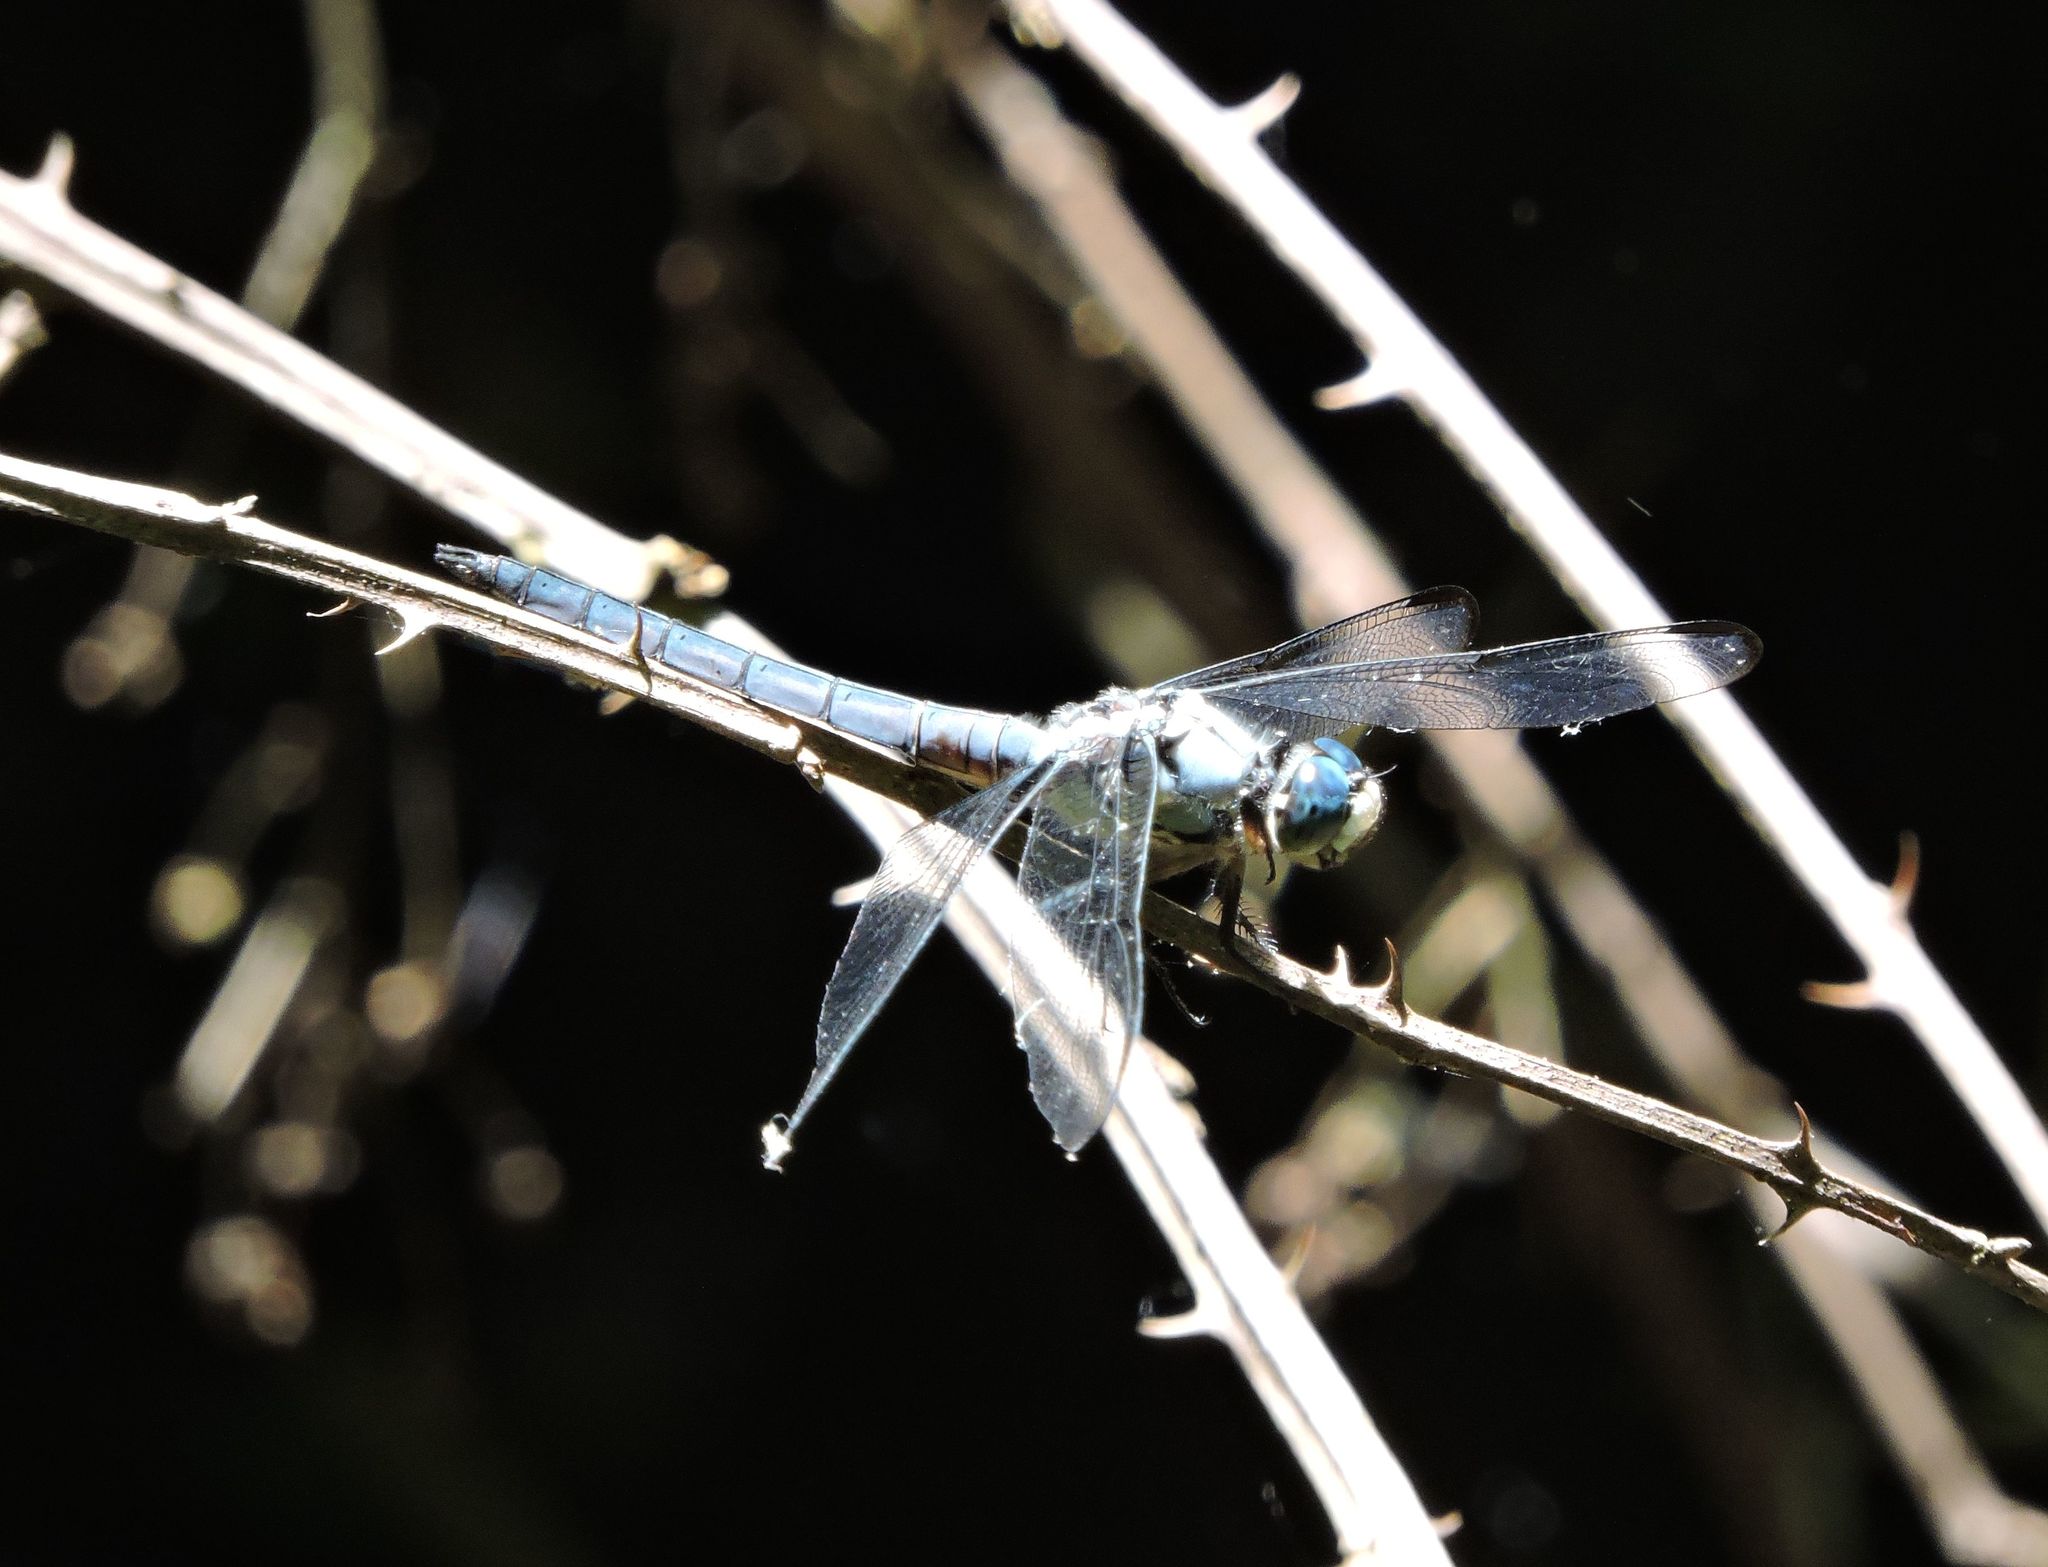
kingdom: Animalia
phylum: Arthropoda
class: Insecta
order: Odonata
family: Libellulidae
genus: Libellula
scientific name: Libellula vibrans
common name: Great blue skimmer
